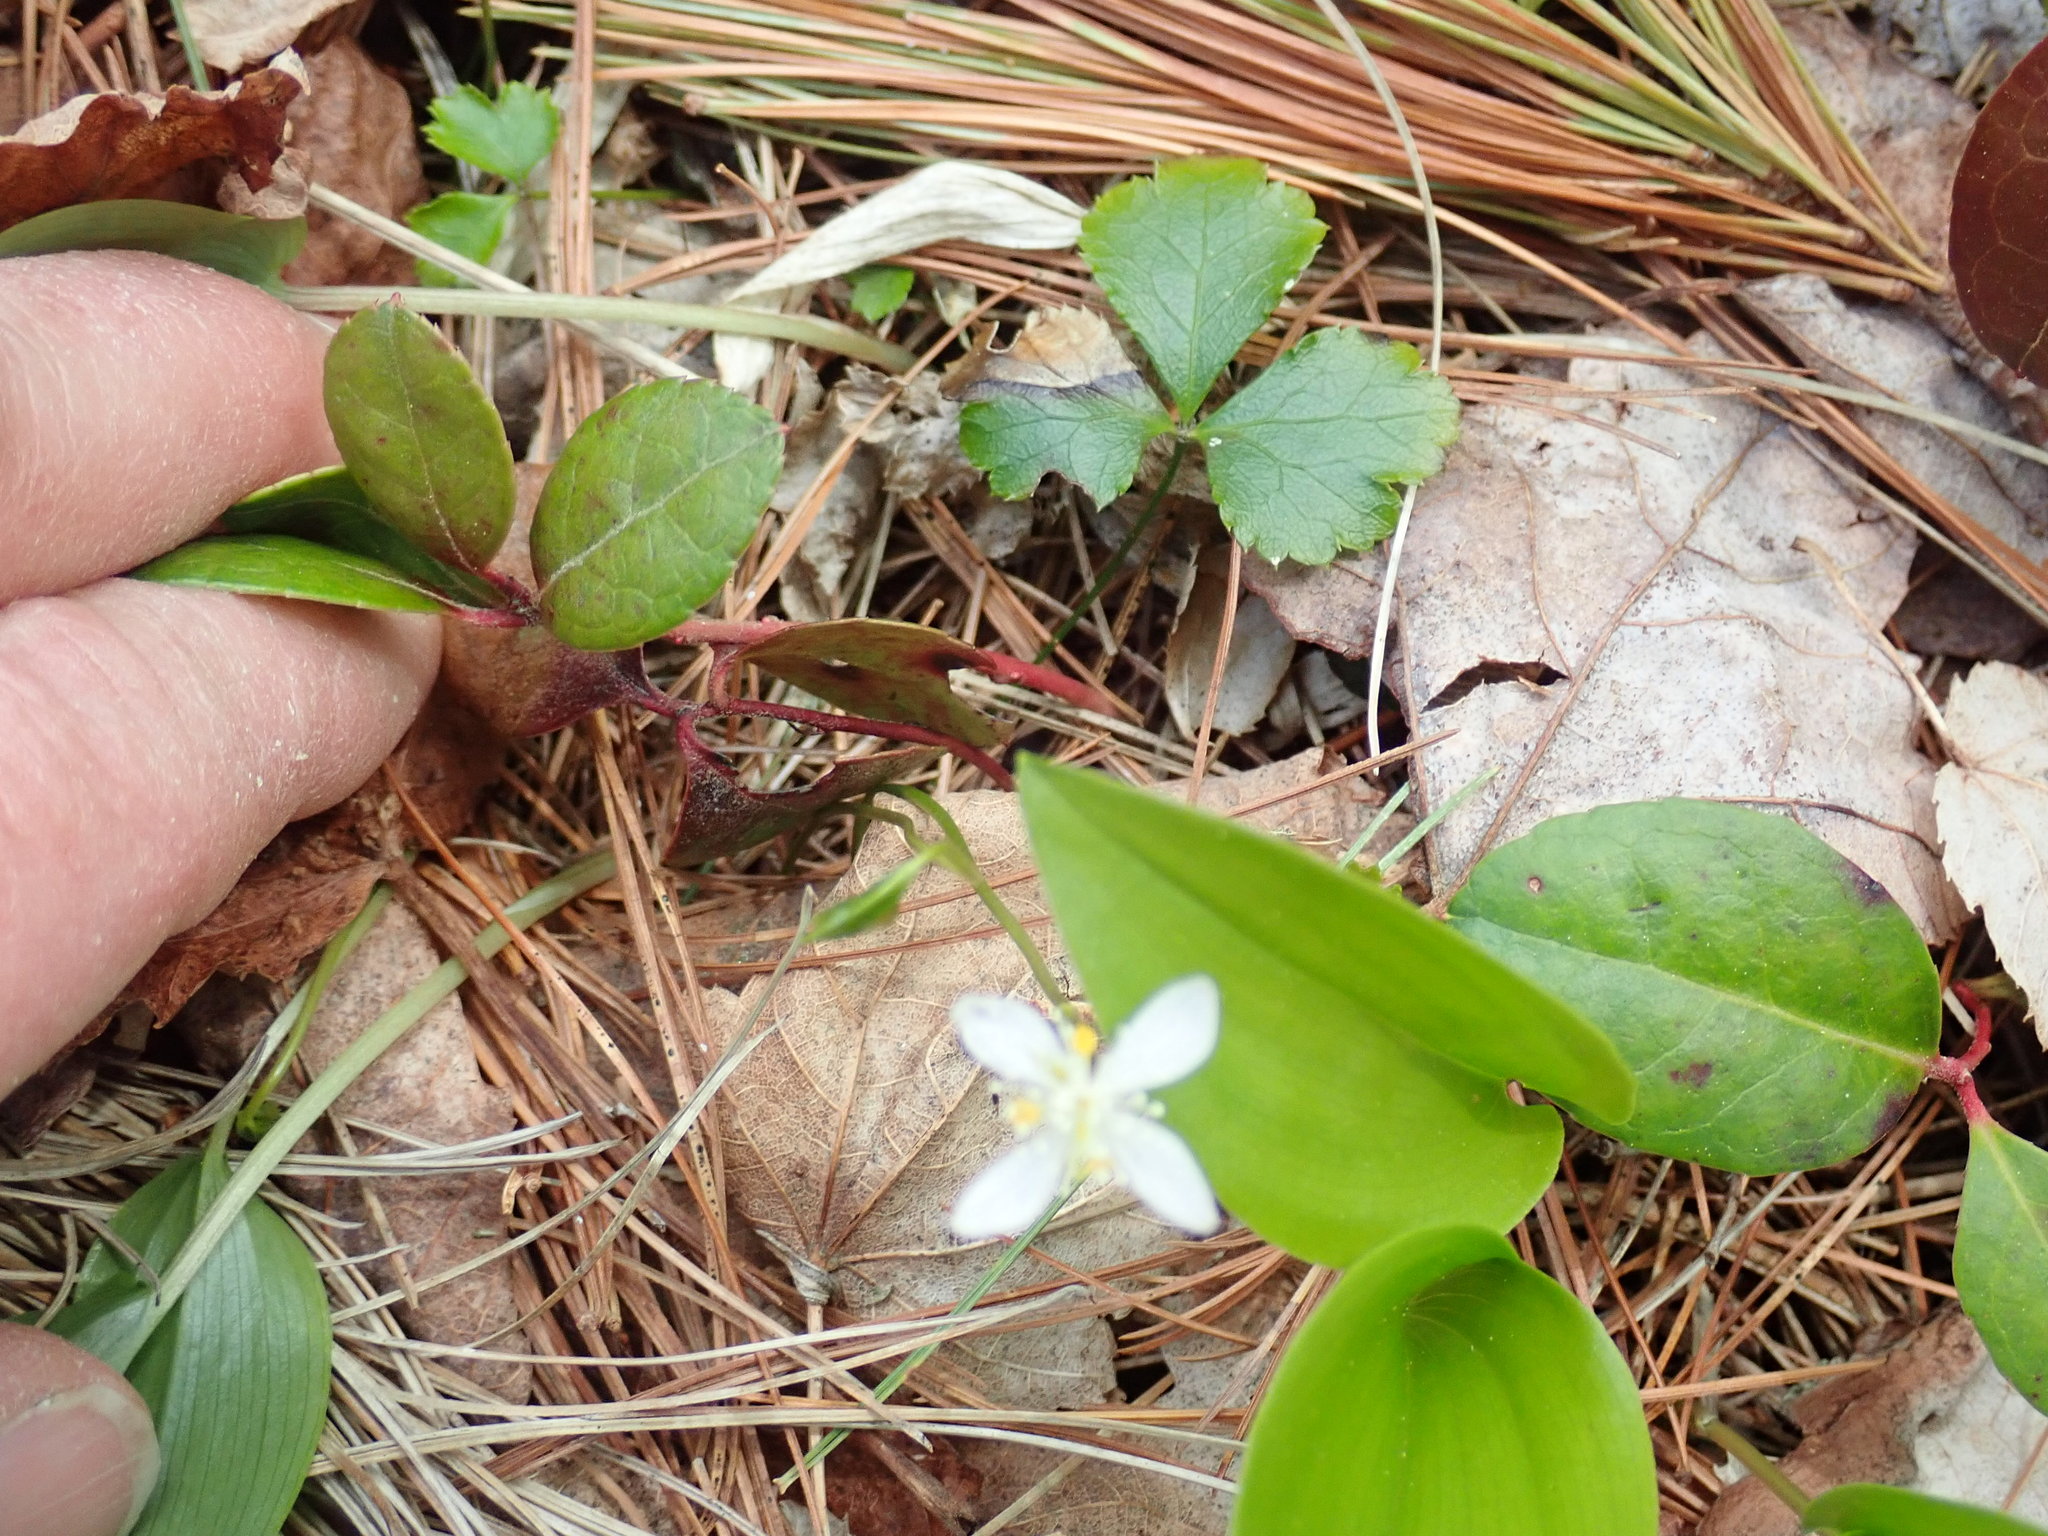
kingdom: Plantae
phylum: Tracheophyta
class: Magnoliopsida
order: Ranunculales
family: Ranunculaceae
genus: Coptis
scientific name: Coptis trifolia
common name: Canker-root
